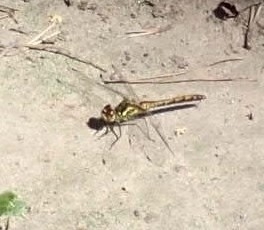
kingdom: Animalia
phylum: Arthropoda
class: Insecta
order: Odonata
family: Libellulidae
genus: Sympetrum
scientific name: Sympetrum danae
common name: Black darter
